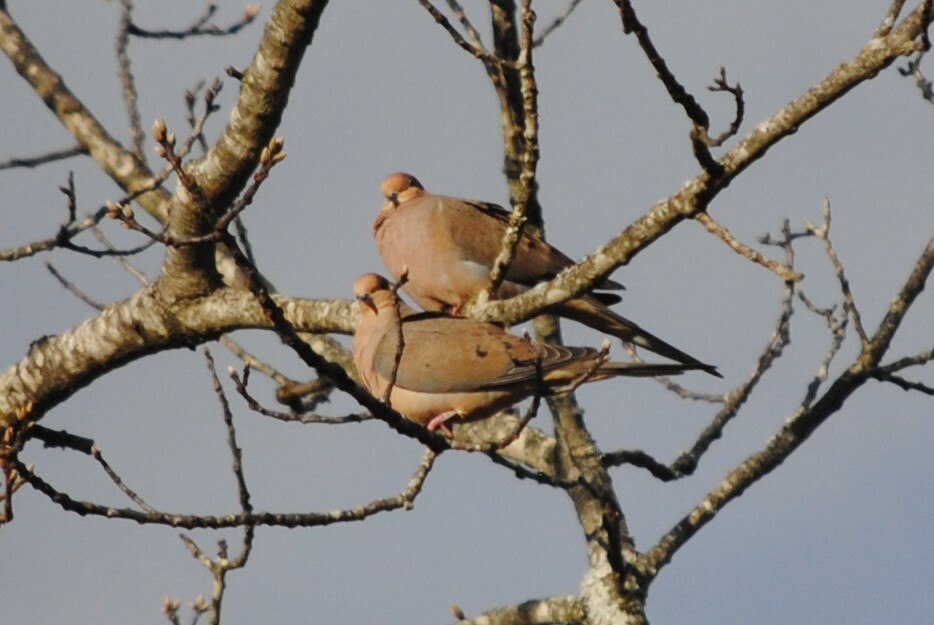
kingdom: Animalia
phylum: Chordata
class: Aves
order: Columbiformes
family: Columbidae
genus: Zenaida
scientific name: Zenaida macroura
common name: Mourning dove
